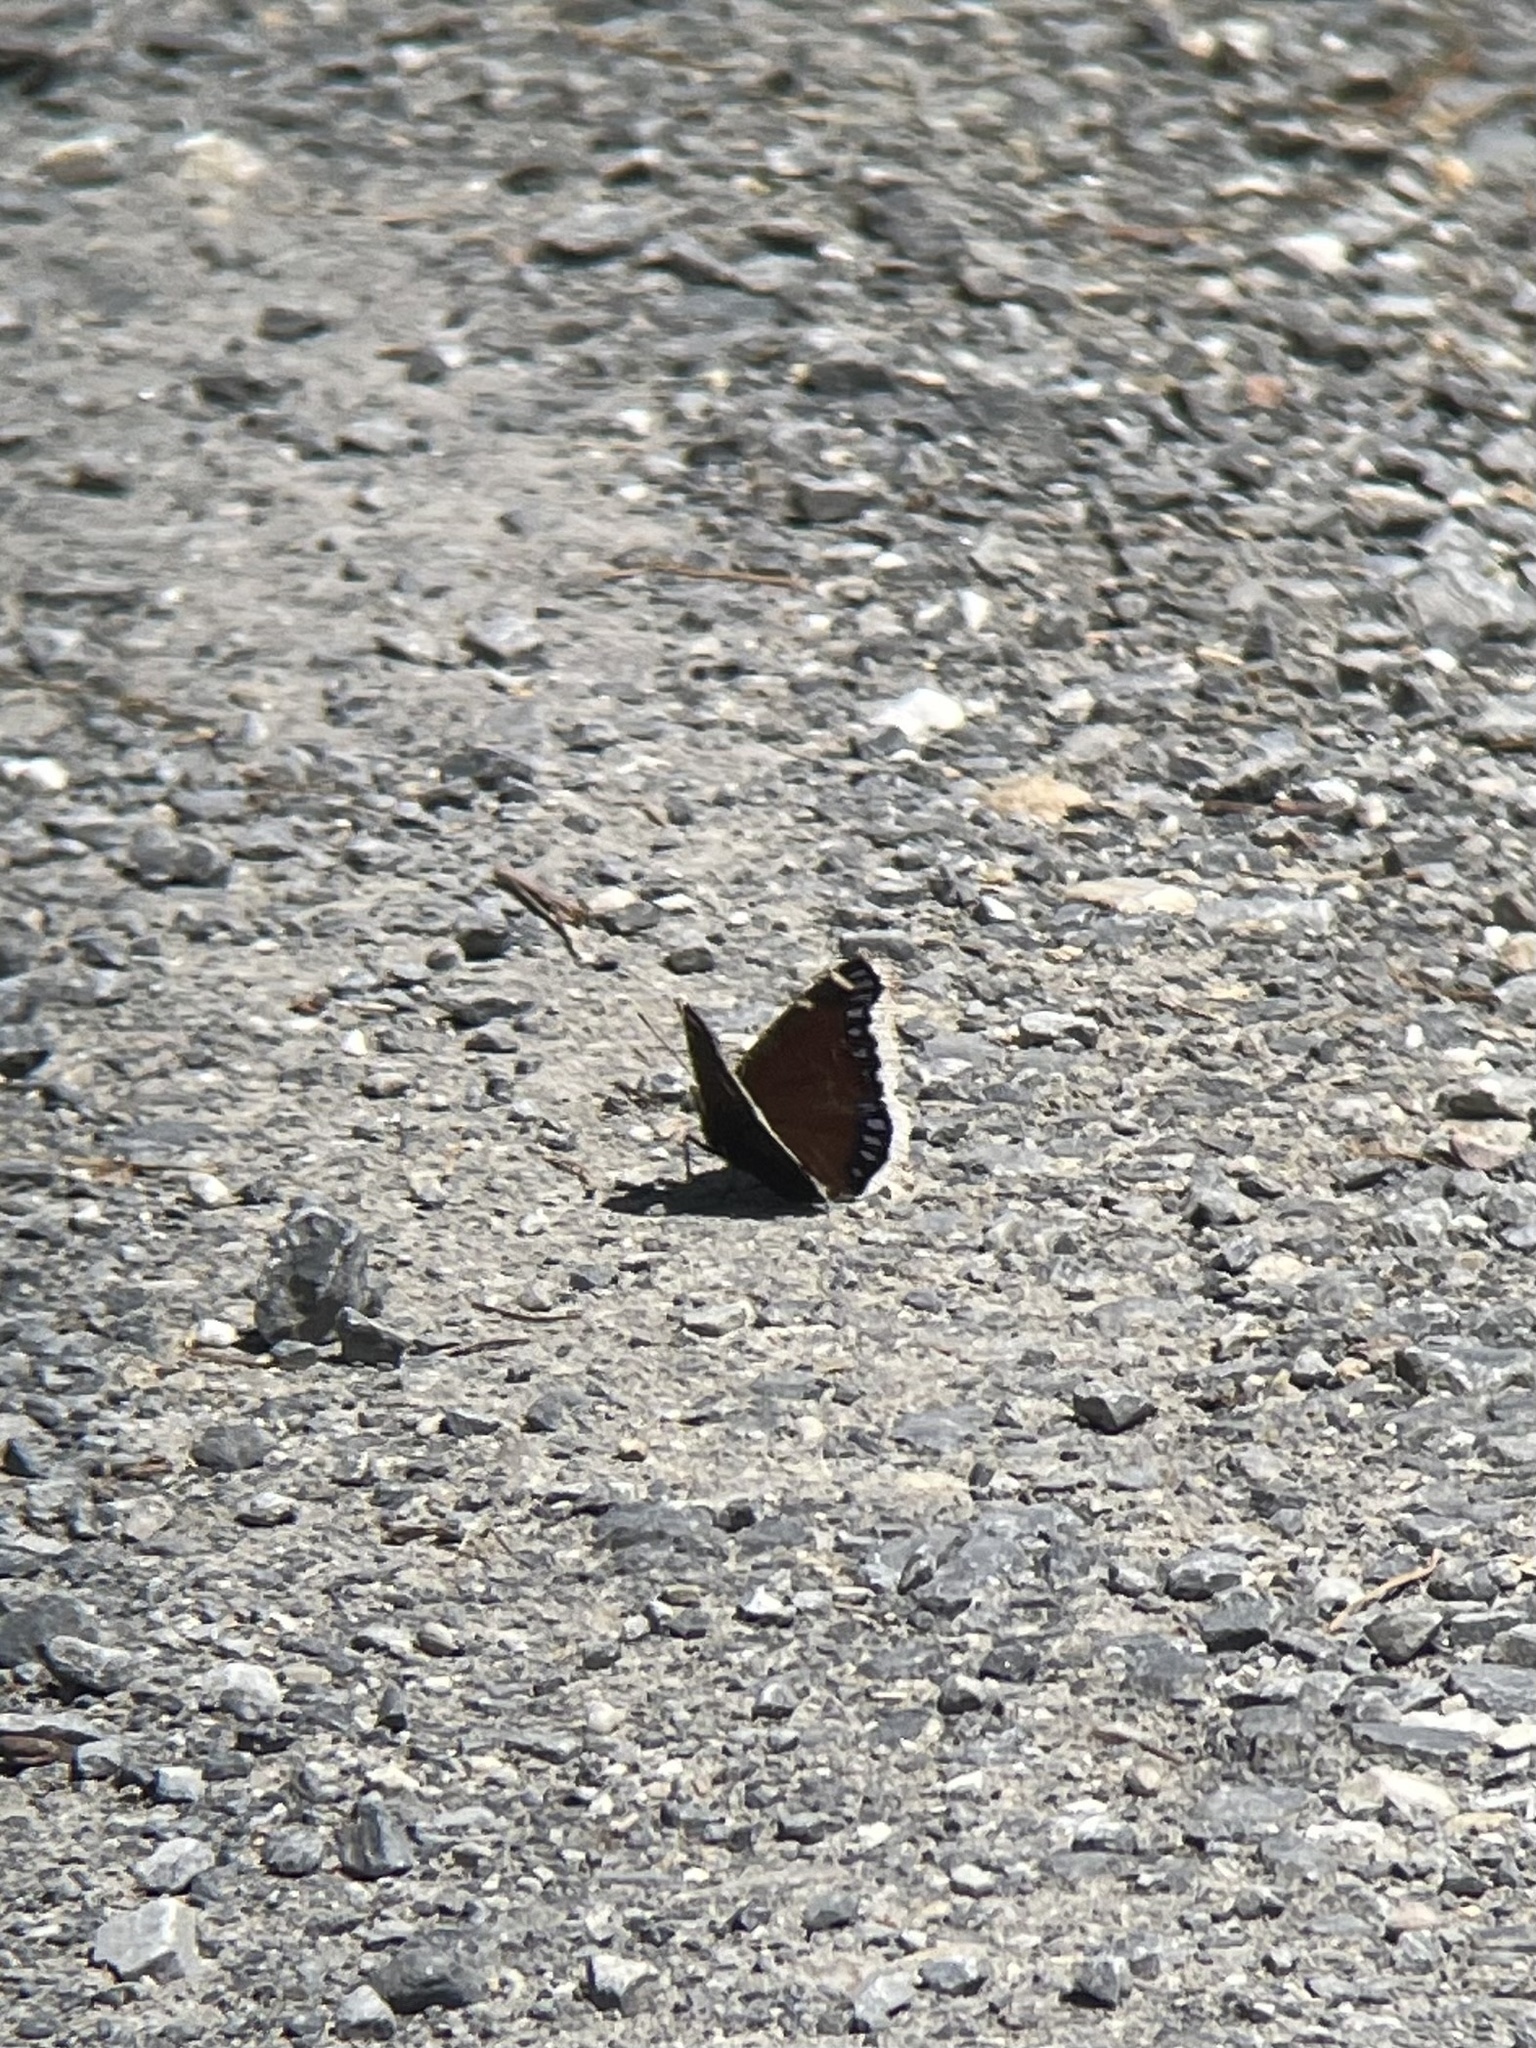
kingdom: Animalia
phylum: Arthropoda
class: Insecta
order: Lepidoptera
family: Nymphalidae
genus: Nymphalis
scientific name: Nymphalis antiopa
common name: Camberwell beauty
